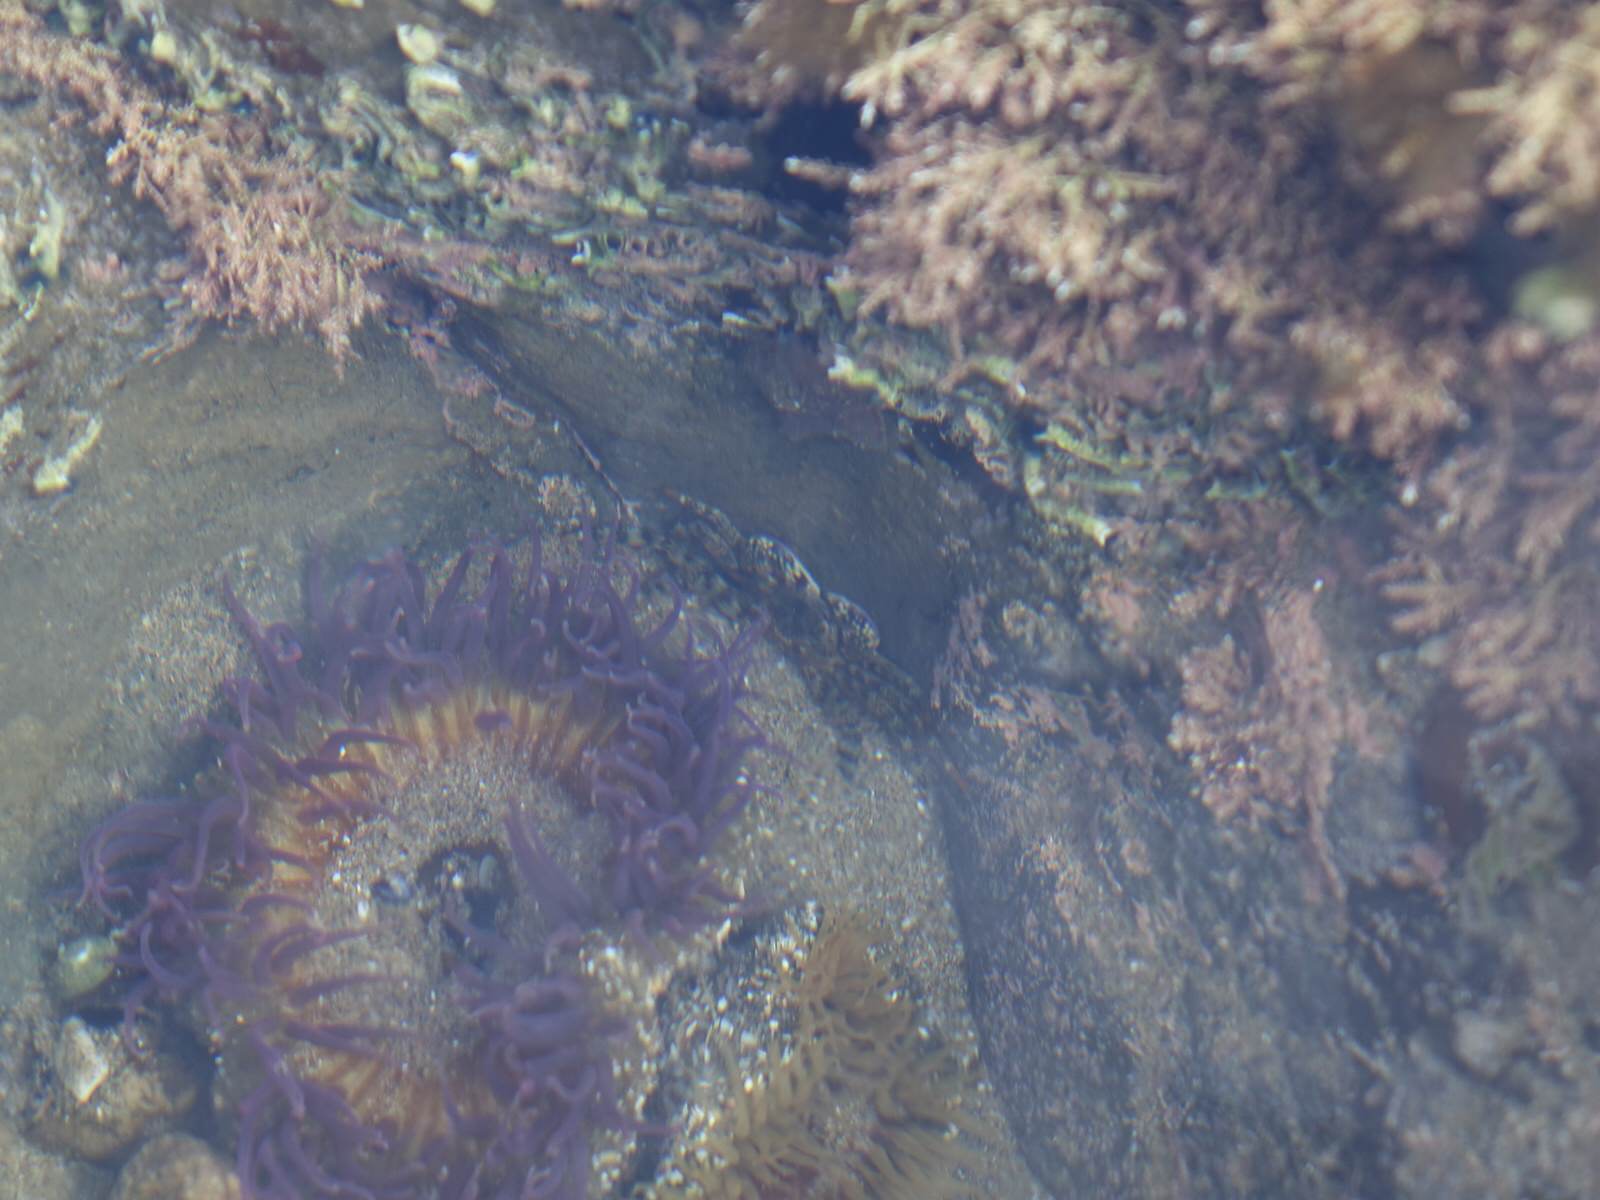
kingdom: Animalia
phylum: Arthropoda
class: Malacostraca
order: Decapoda
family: Grapsidae
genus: Leptograpsus
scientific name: Leptograpsus variegatus
